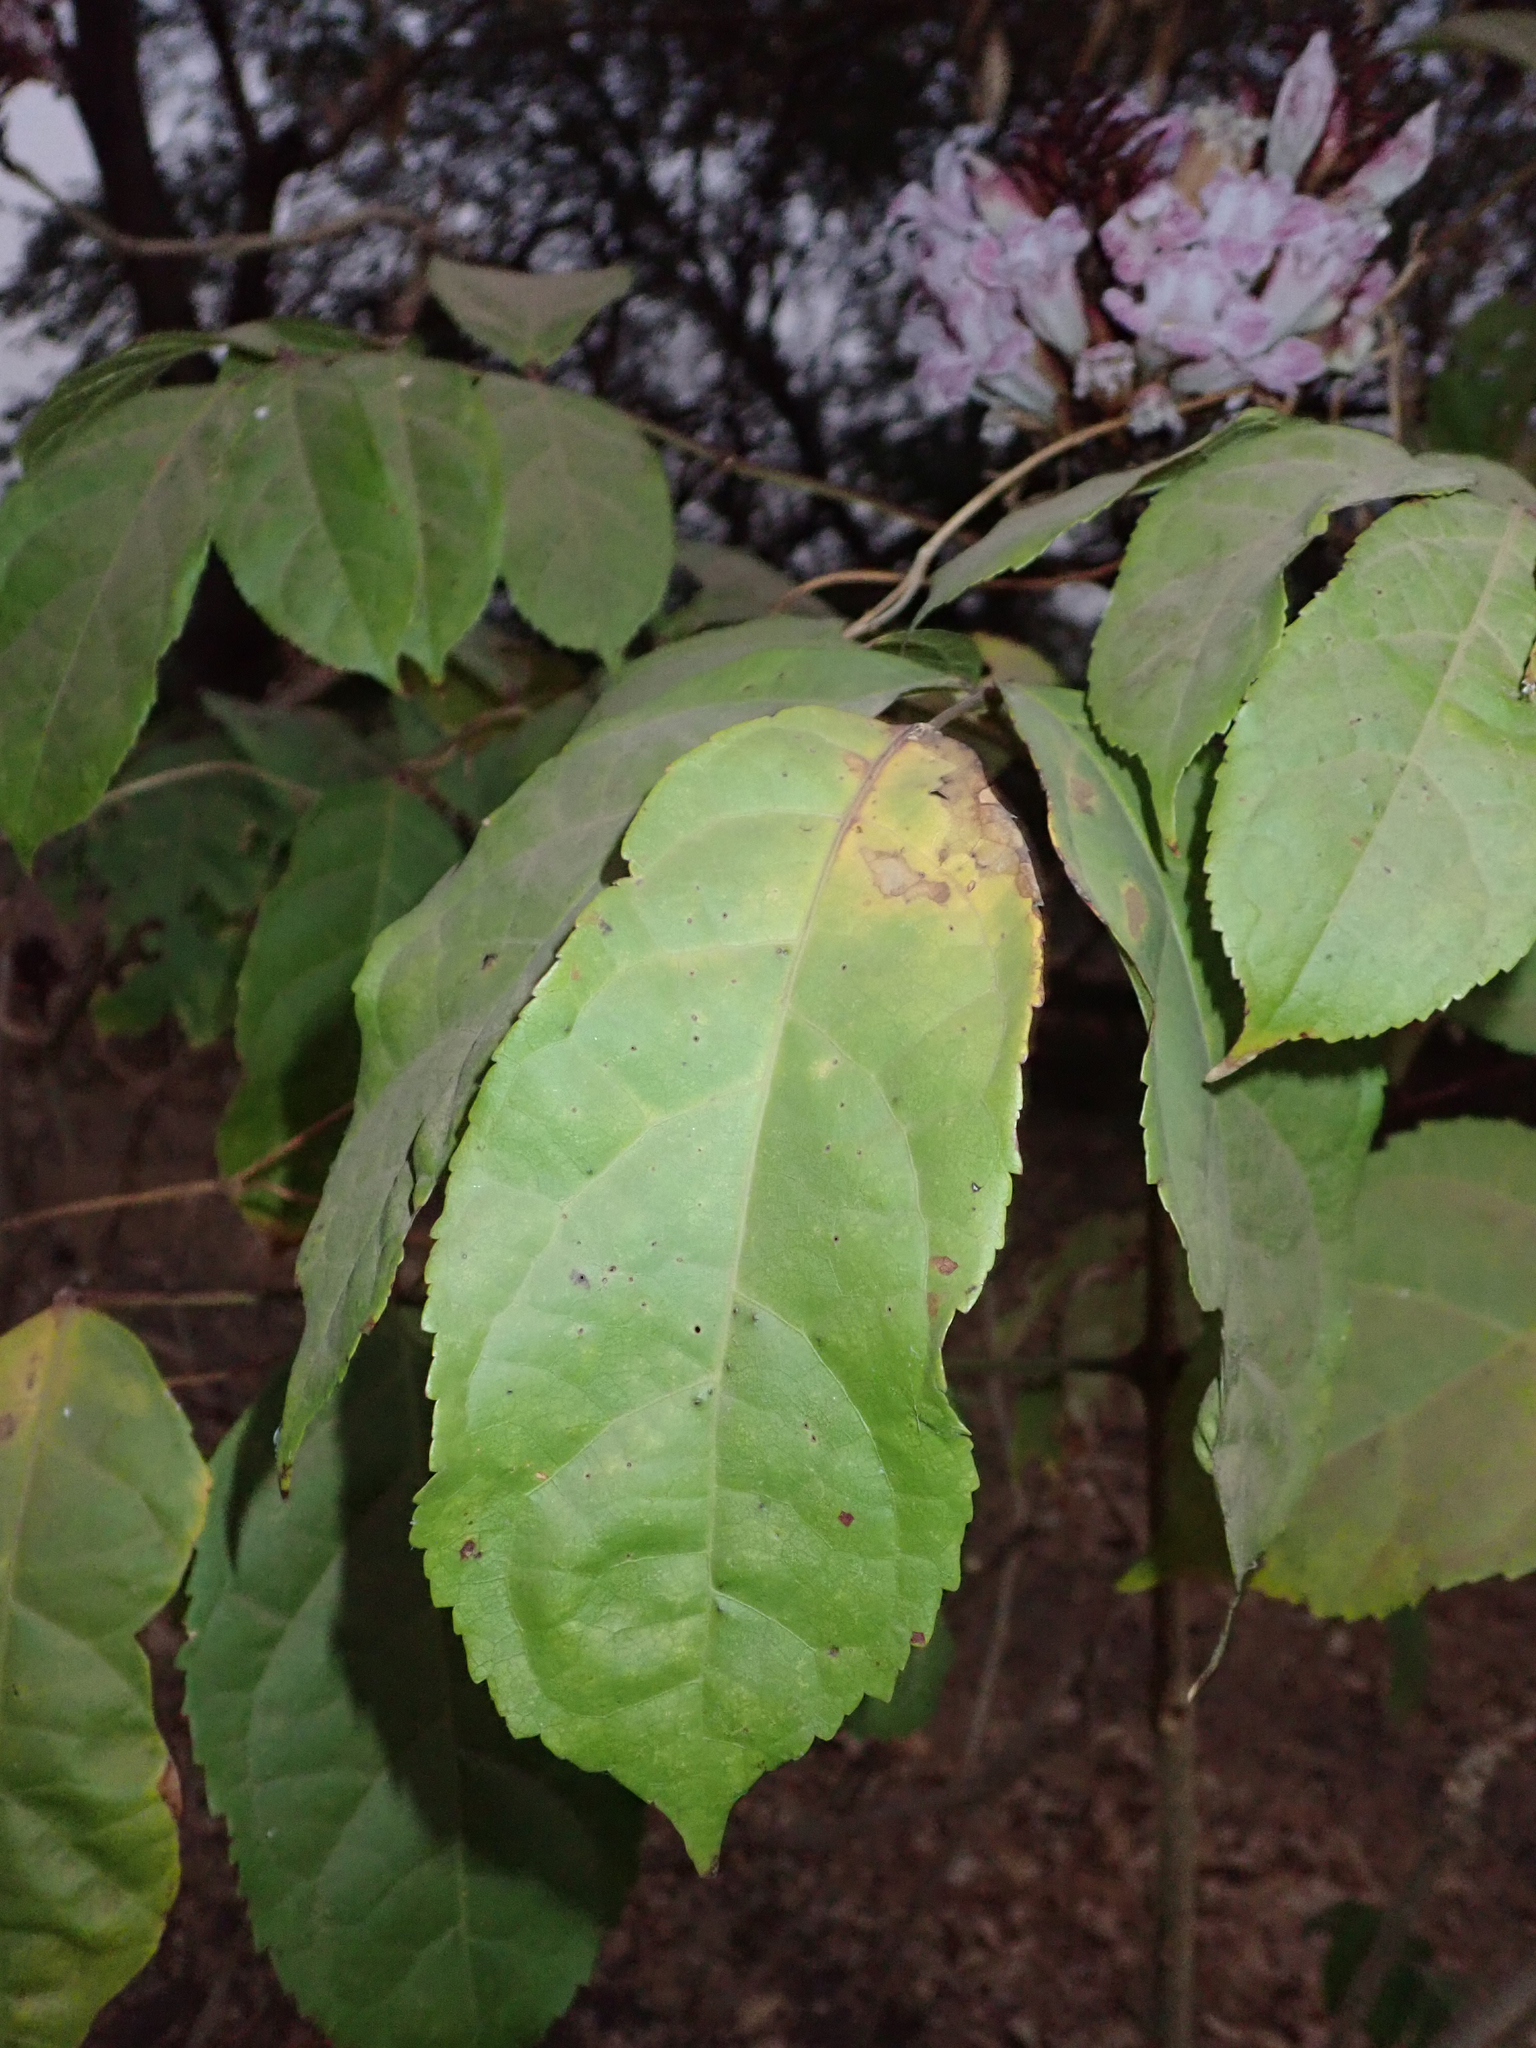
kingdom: Plantae
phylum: Tracheophyta
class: Magnoliopsida
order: Lamiales
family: Bignoniaceae
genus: Newbouldia
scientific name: Newbouldia laevis
